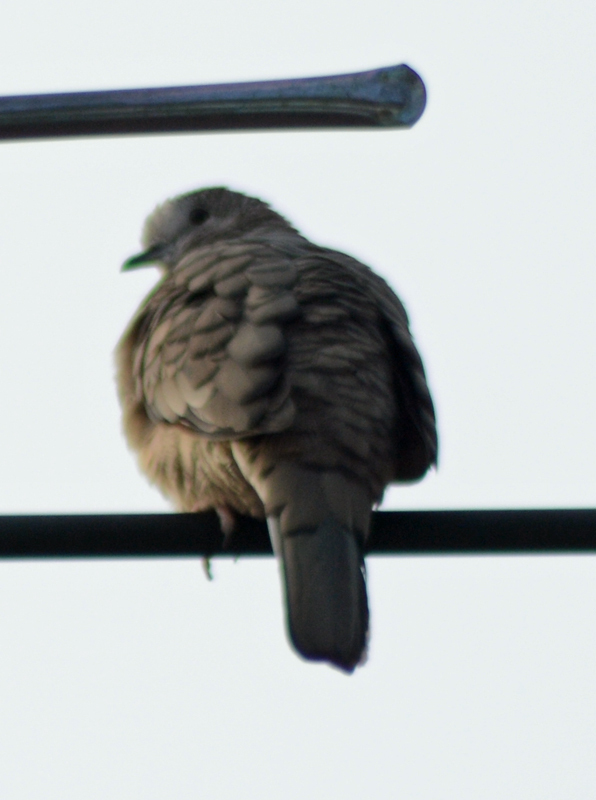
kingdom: Animalia
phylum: Chordata
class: Aves
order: Columbiformes
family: Columbidae
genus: Columbina
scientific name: Columbina inca
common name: Inca dove
